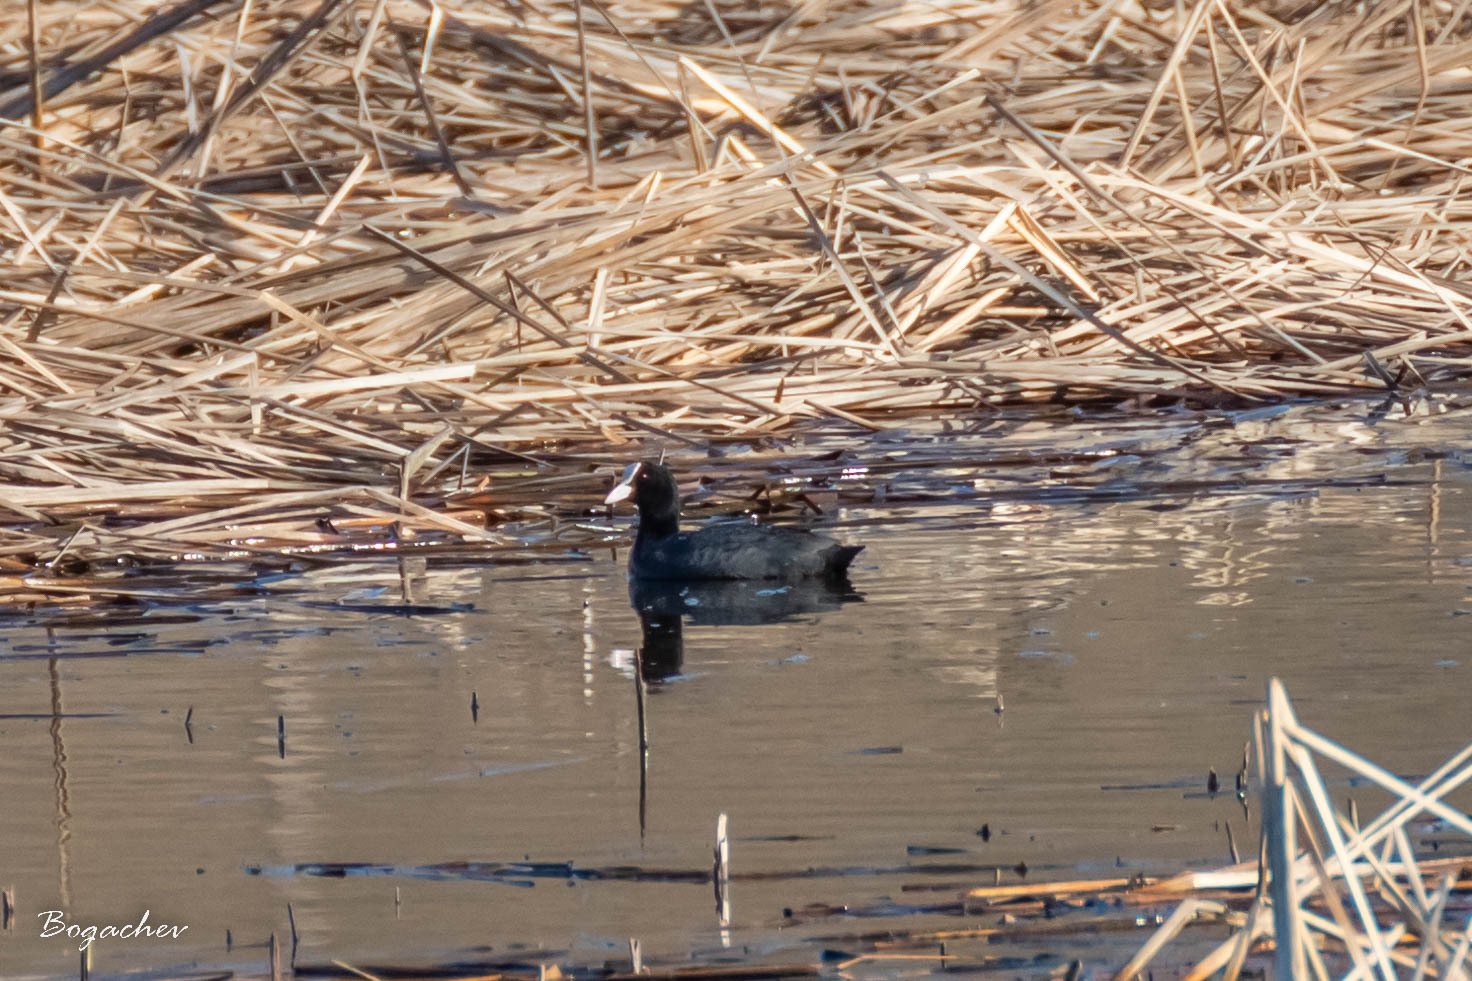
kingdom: Animalia
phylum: Chordata
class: Aves
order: Gruiformes
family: Rallidae
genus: Fulica
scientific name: Fulica atra
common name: Eurasian coot
